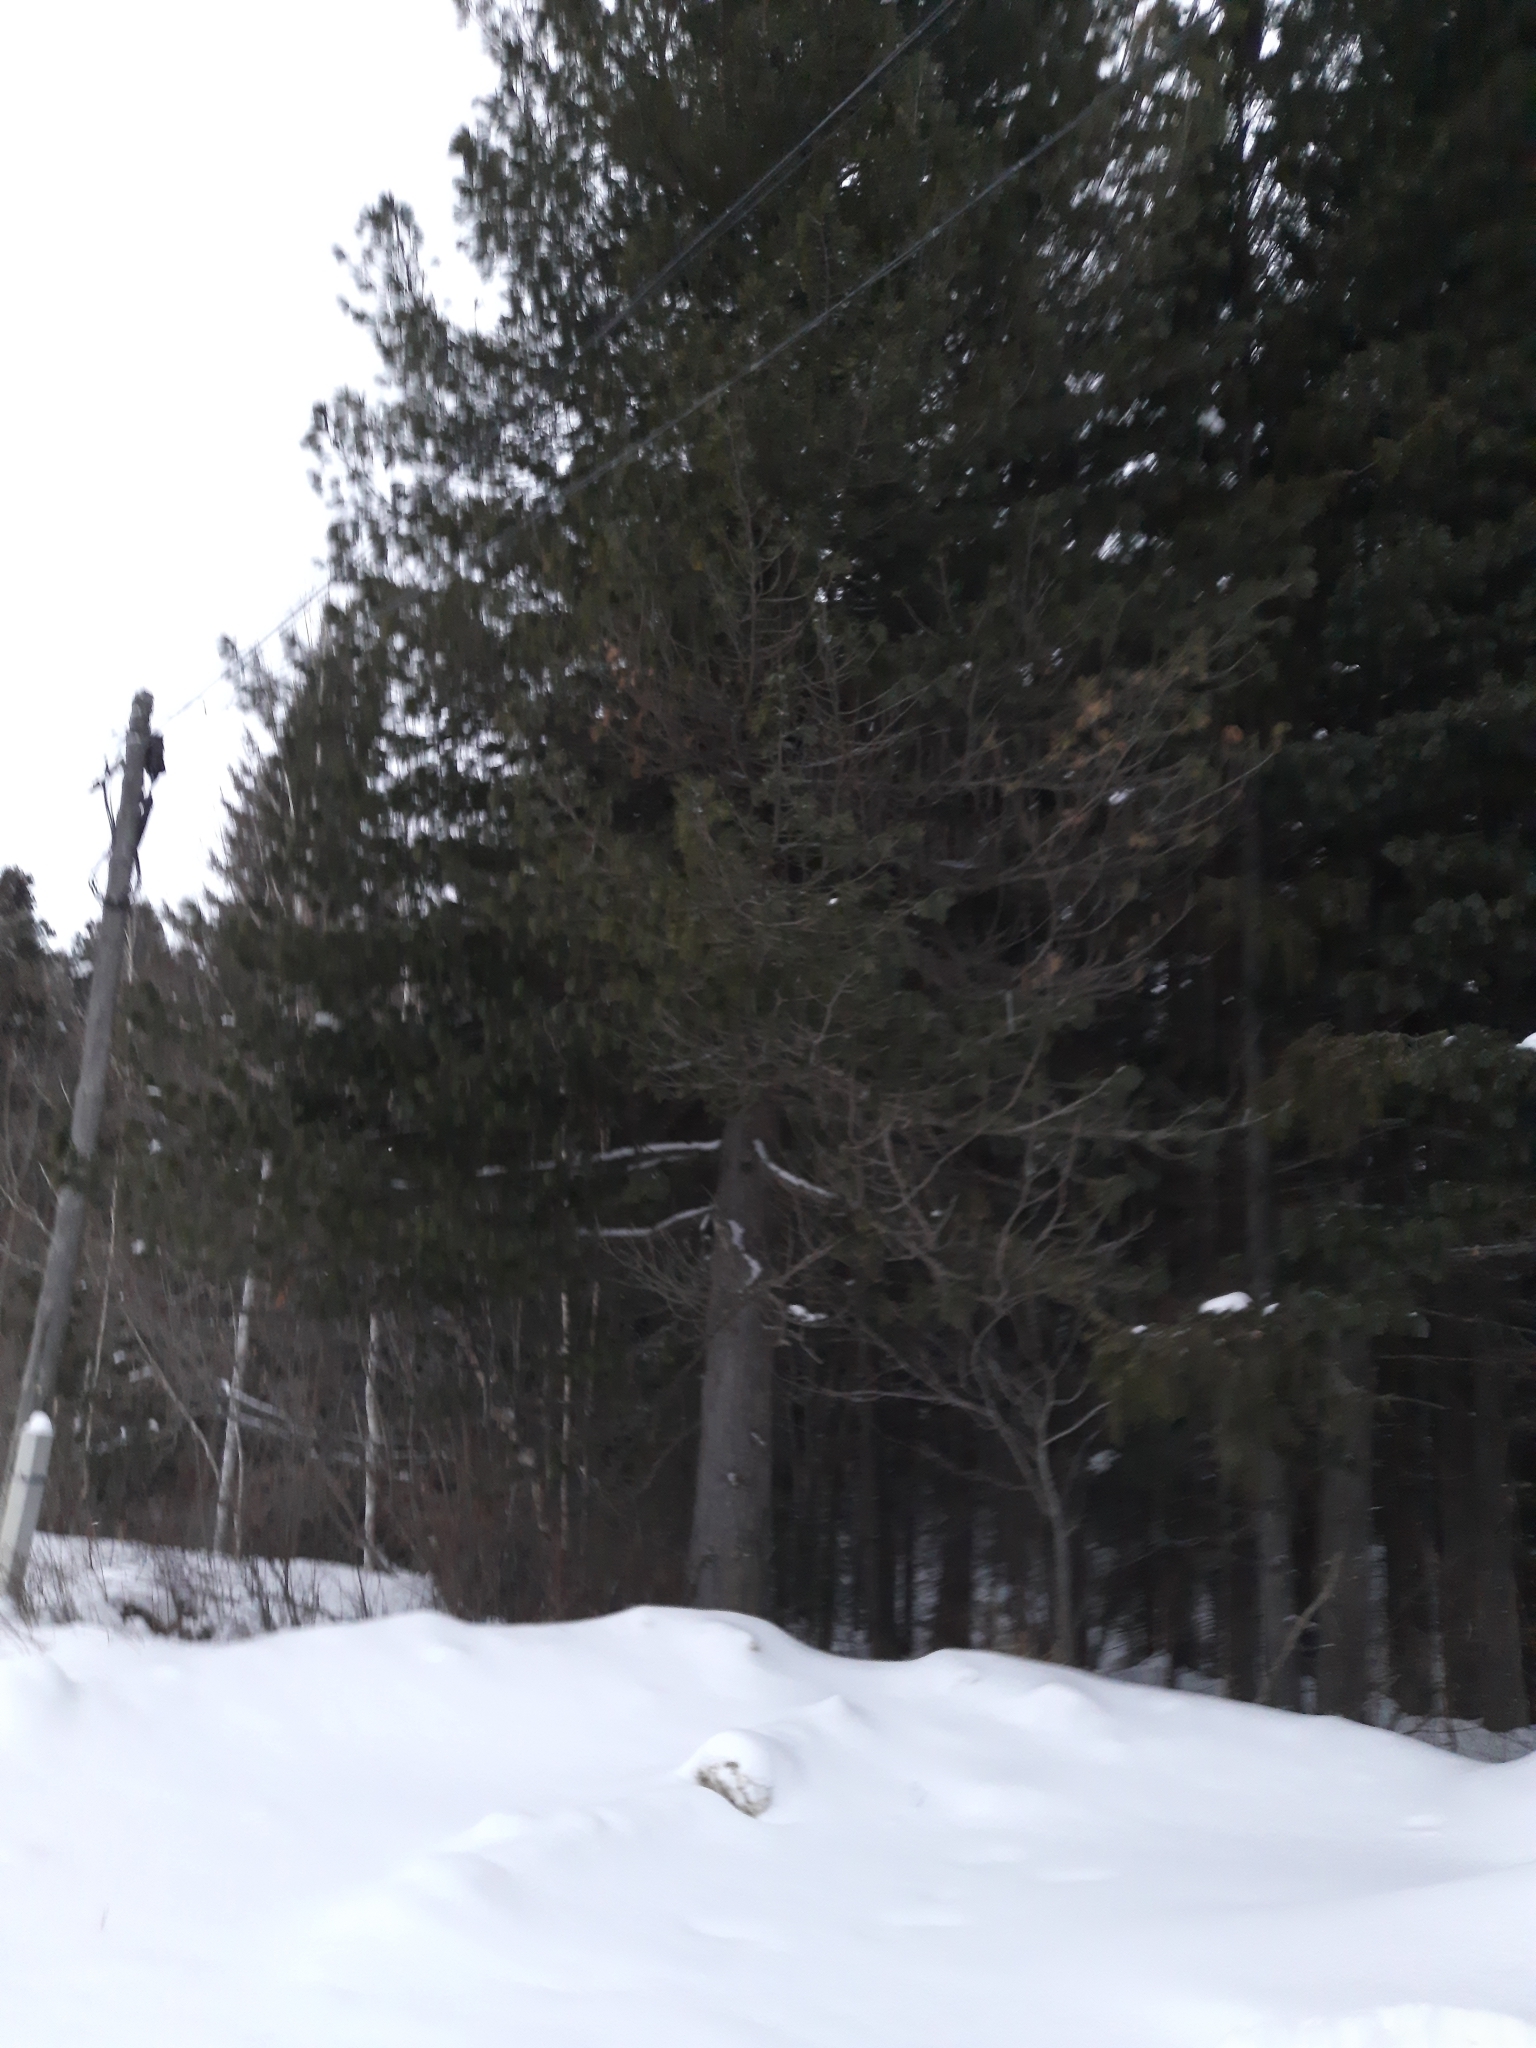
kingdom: Plantae
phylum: Tracheophyta
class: Pinopsida
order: Pinales
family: Pinaceae
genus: Pinus
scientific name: Pinus sibirica
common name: Siberian pine
